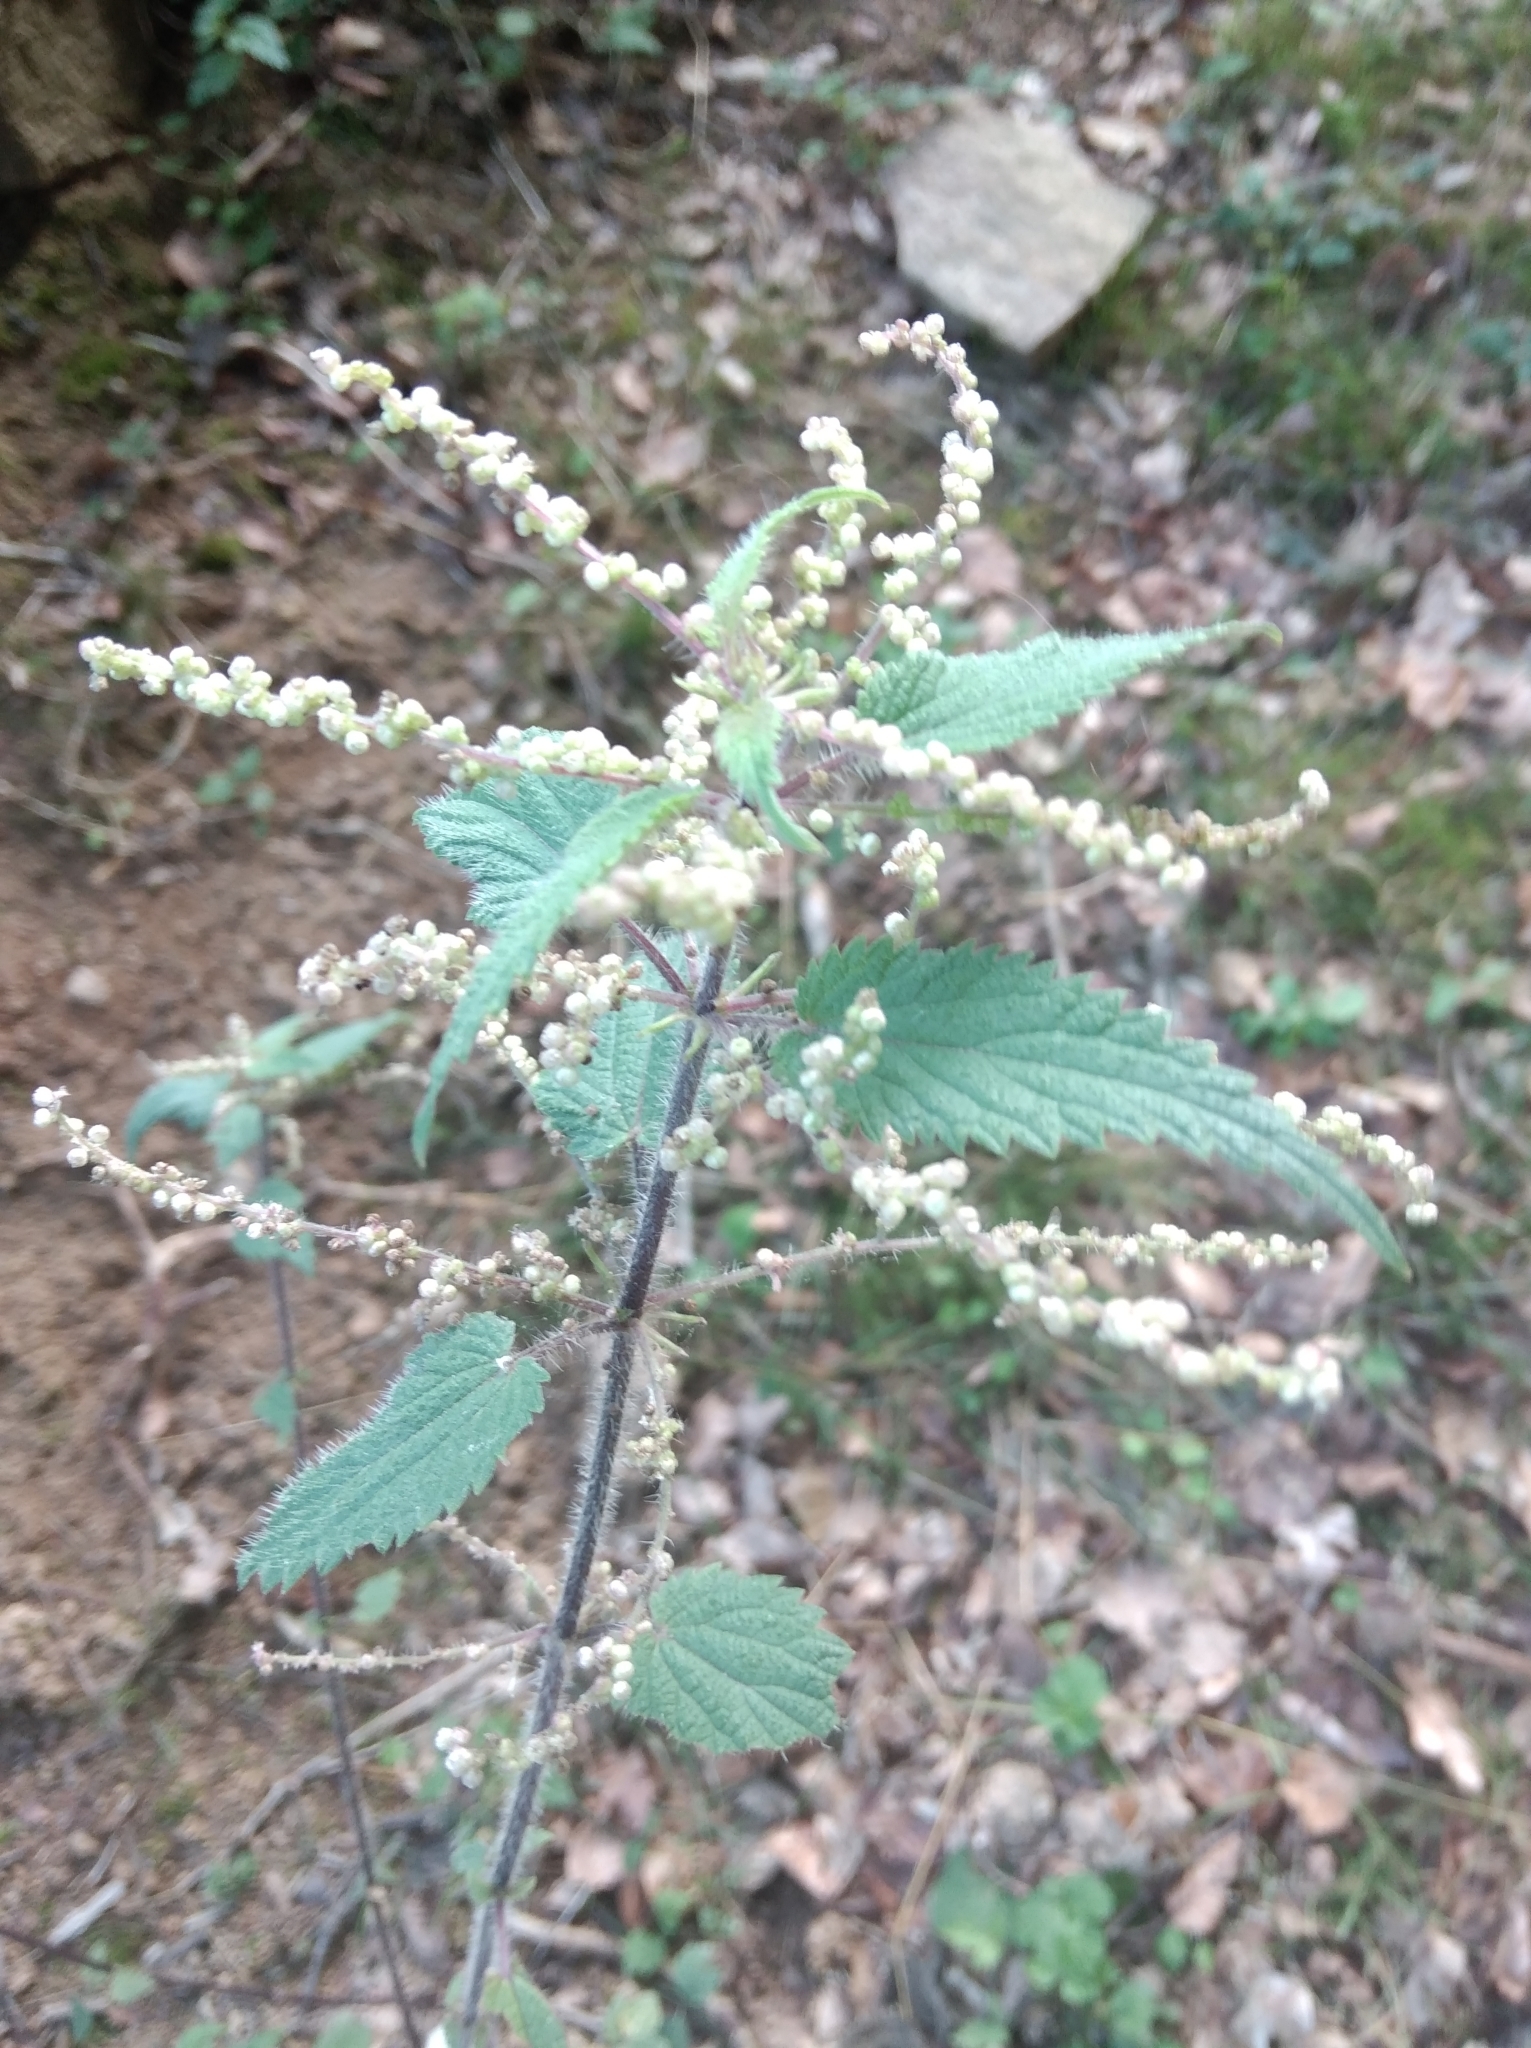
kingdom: Plantae
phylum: Tracheophyta
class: Magnoliopsida
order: Rosales
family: Urticaceae
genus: Urtica
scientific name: Urtica dioica
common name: Common nettle
